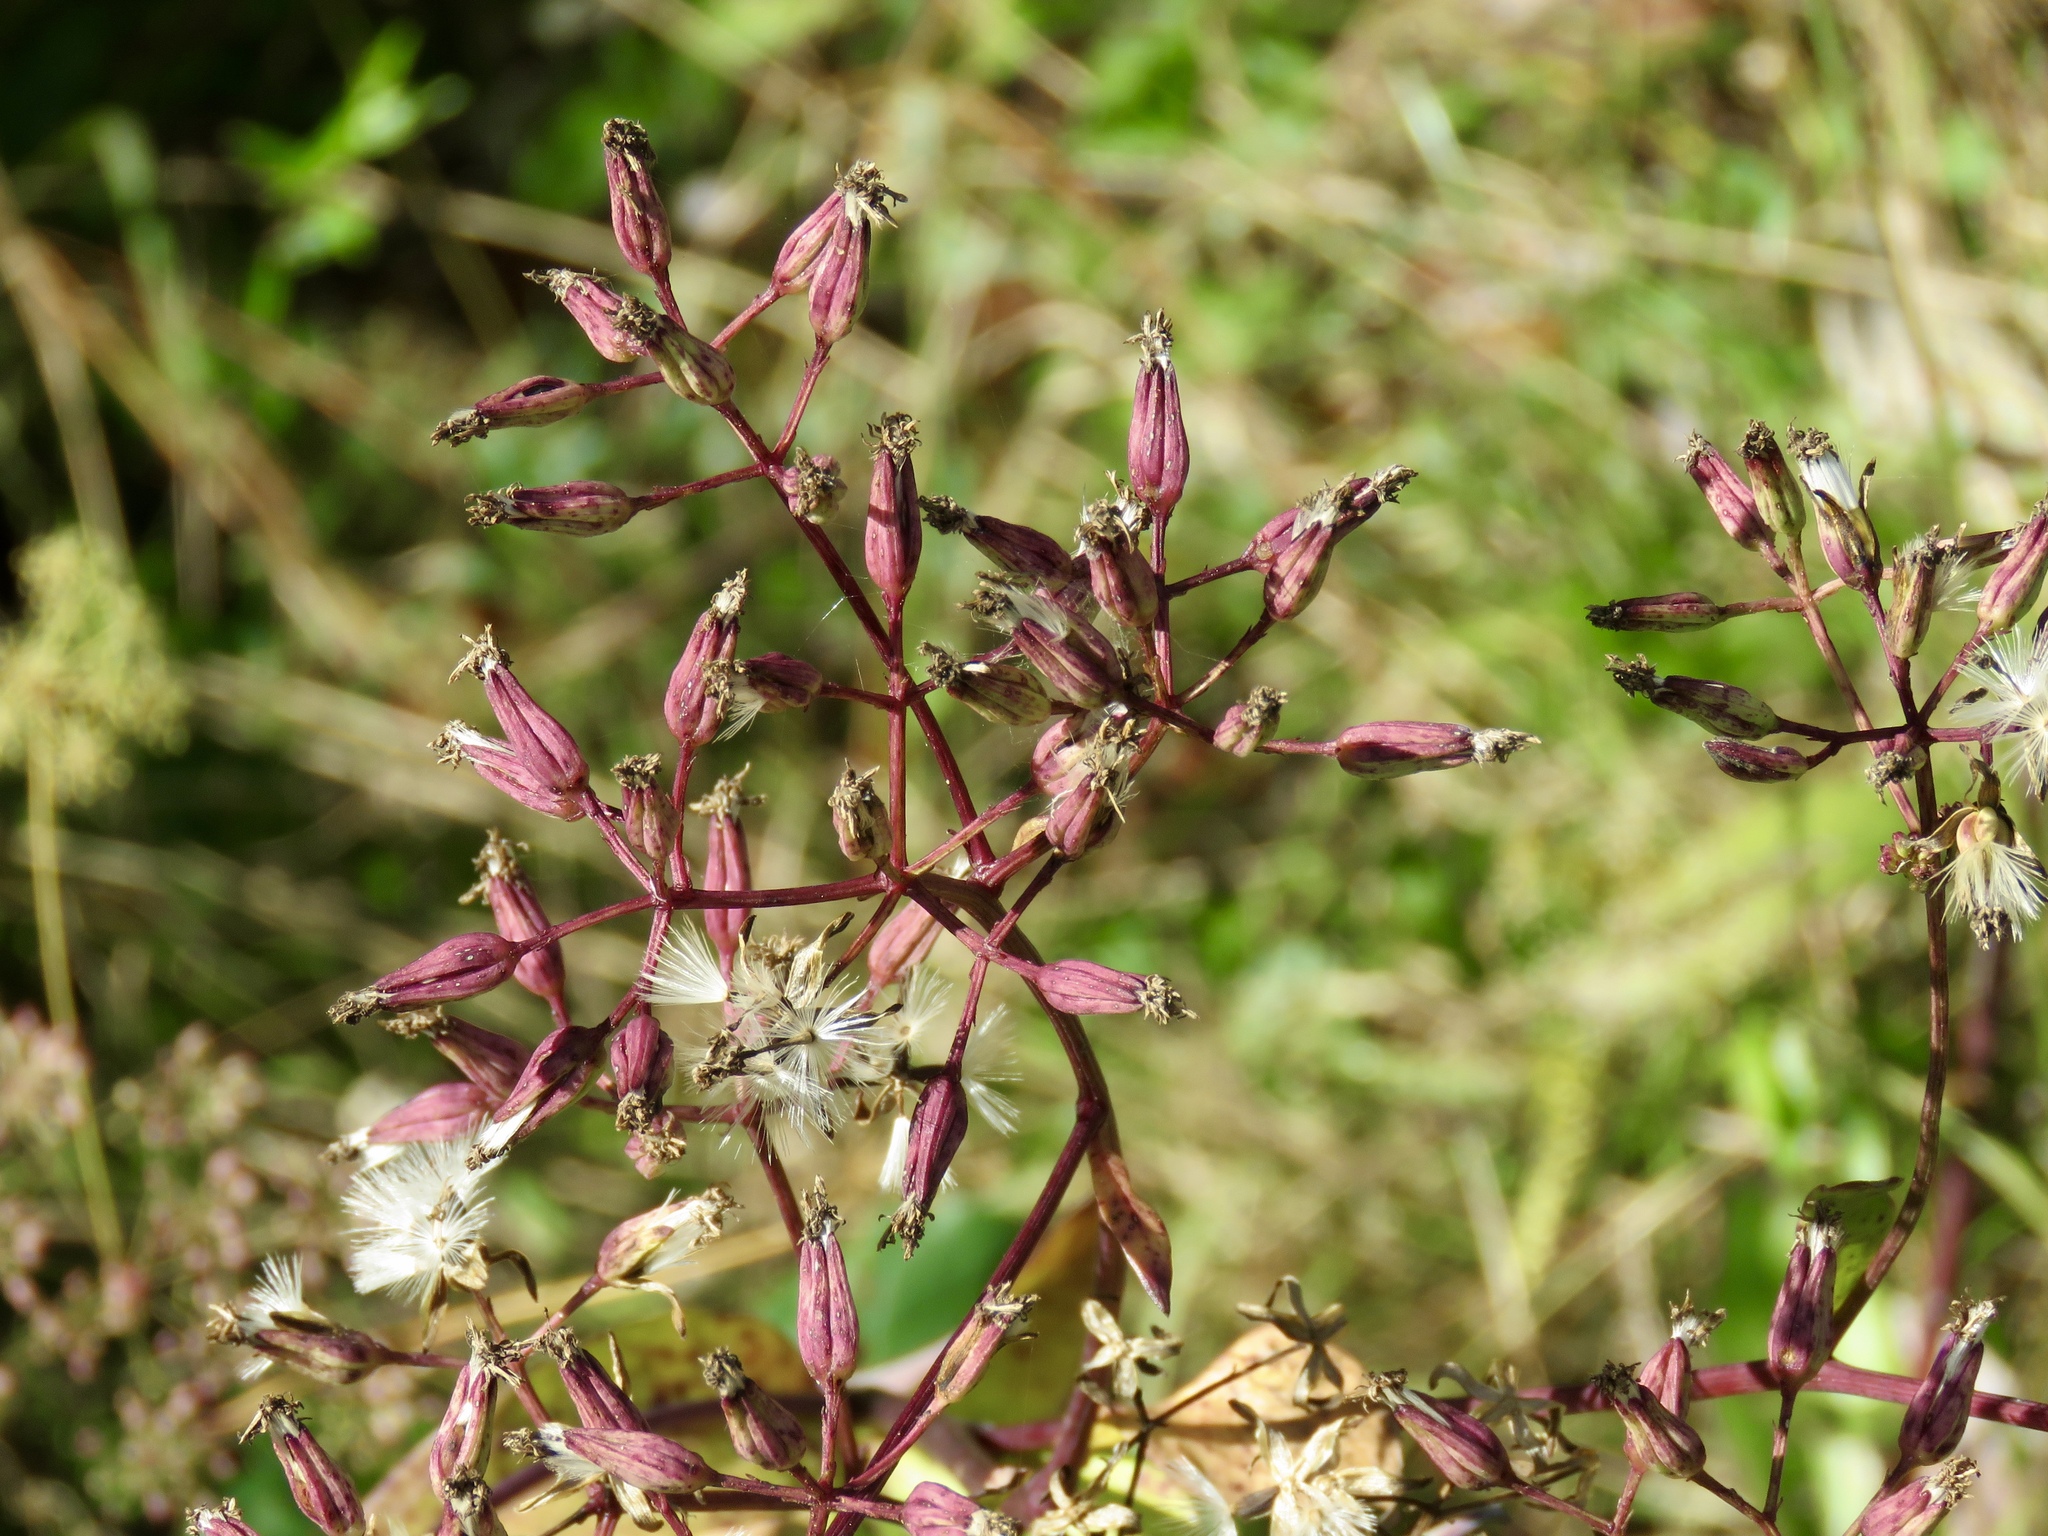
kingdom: Plantae
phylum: Tracheophyta
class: Magnoliopsida
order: Asterales
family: Asteraceae
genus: Arnoglossum
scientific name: Arnoglossum ovatum
